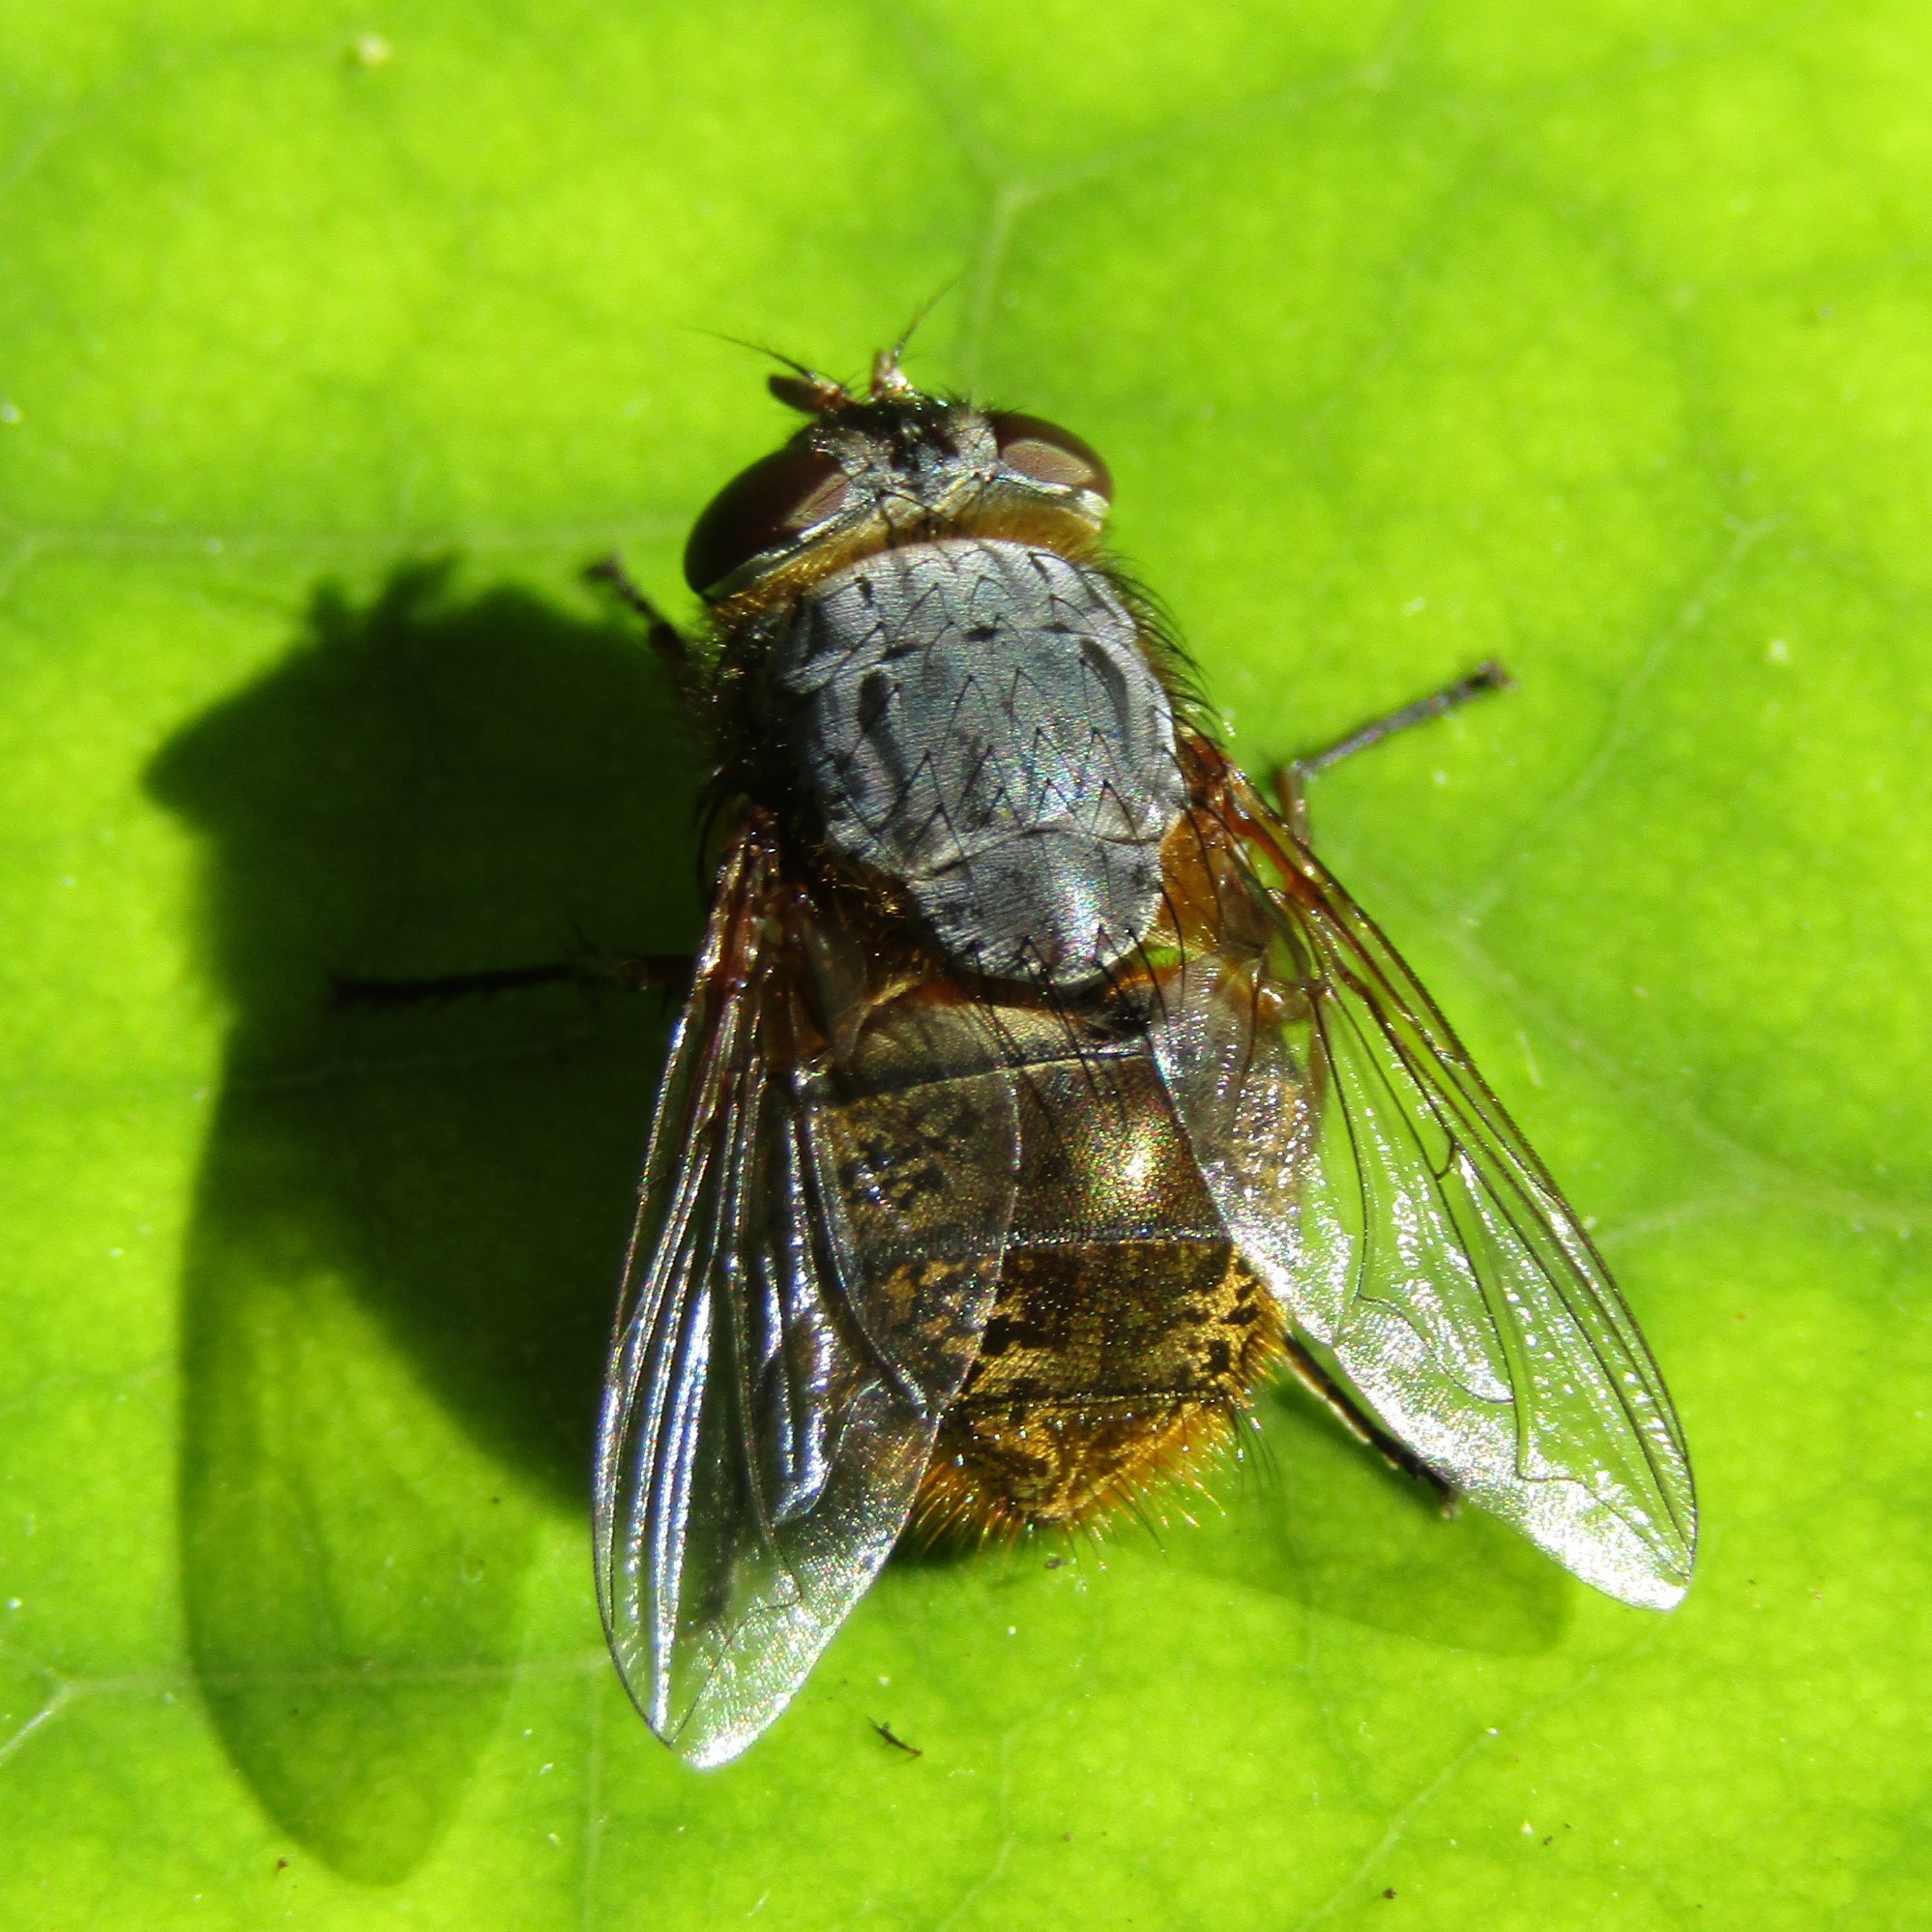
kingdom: Animalia
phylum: Arthropoda
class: Insecta
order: Diptera
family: Calliphoridae
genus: Calliphora
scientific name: Calliphora stygia
